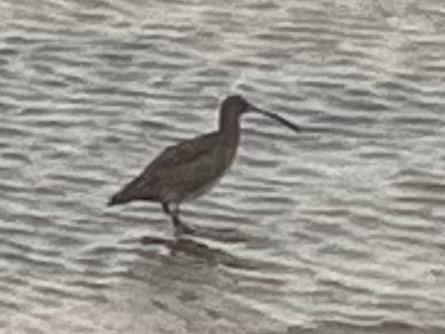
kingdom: Animalia
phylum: Chordata
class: Aves
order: Charadriiformes
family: Scolopacidae
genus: Numenius
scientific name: Numenius arquata
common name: Eurasian curlew
